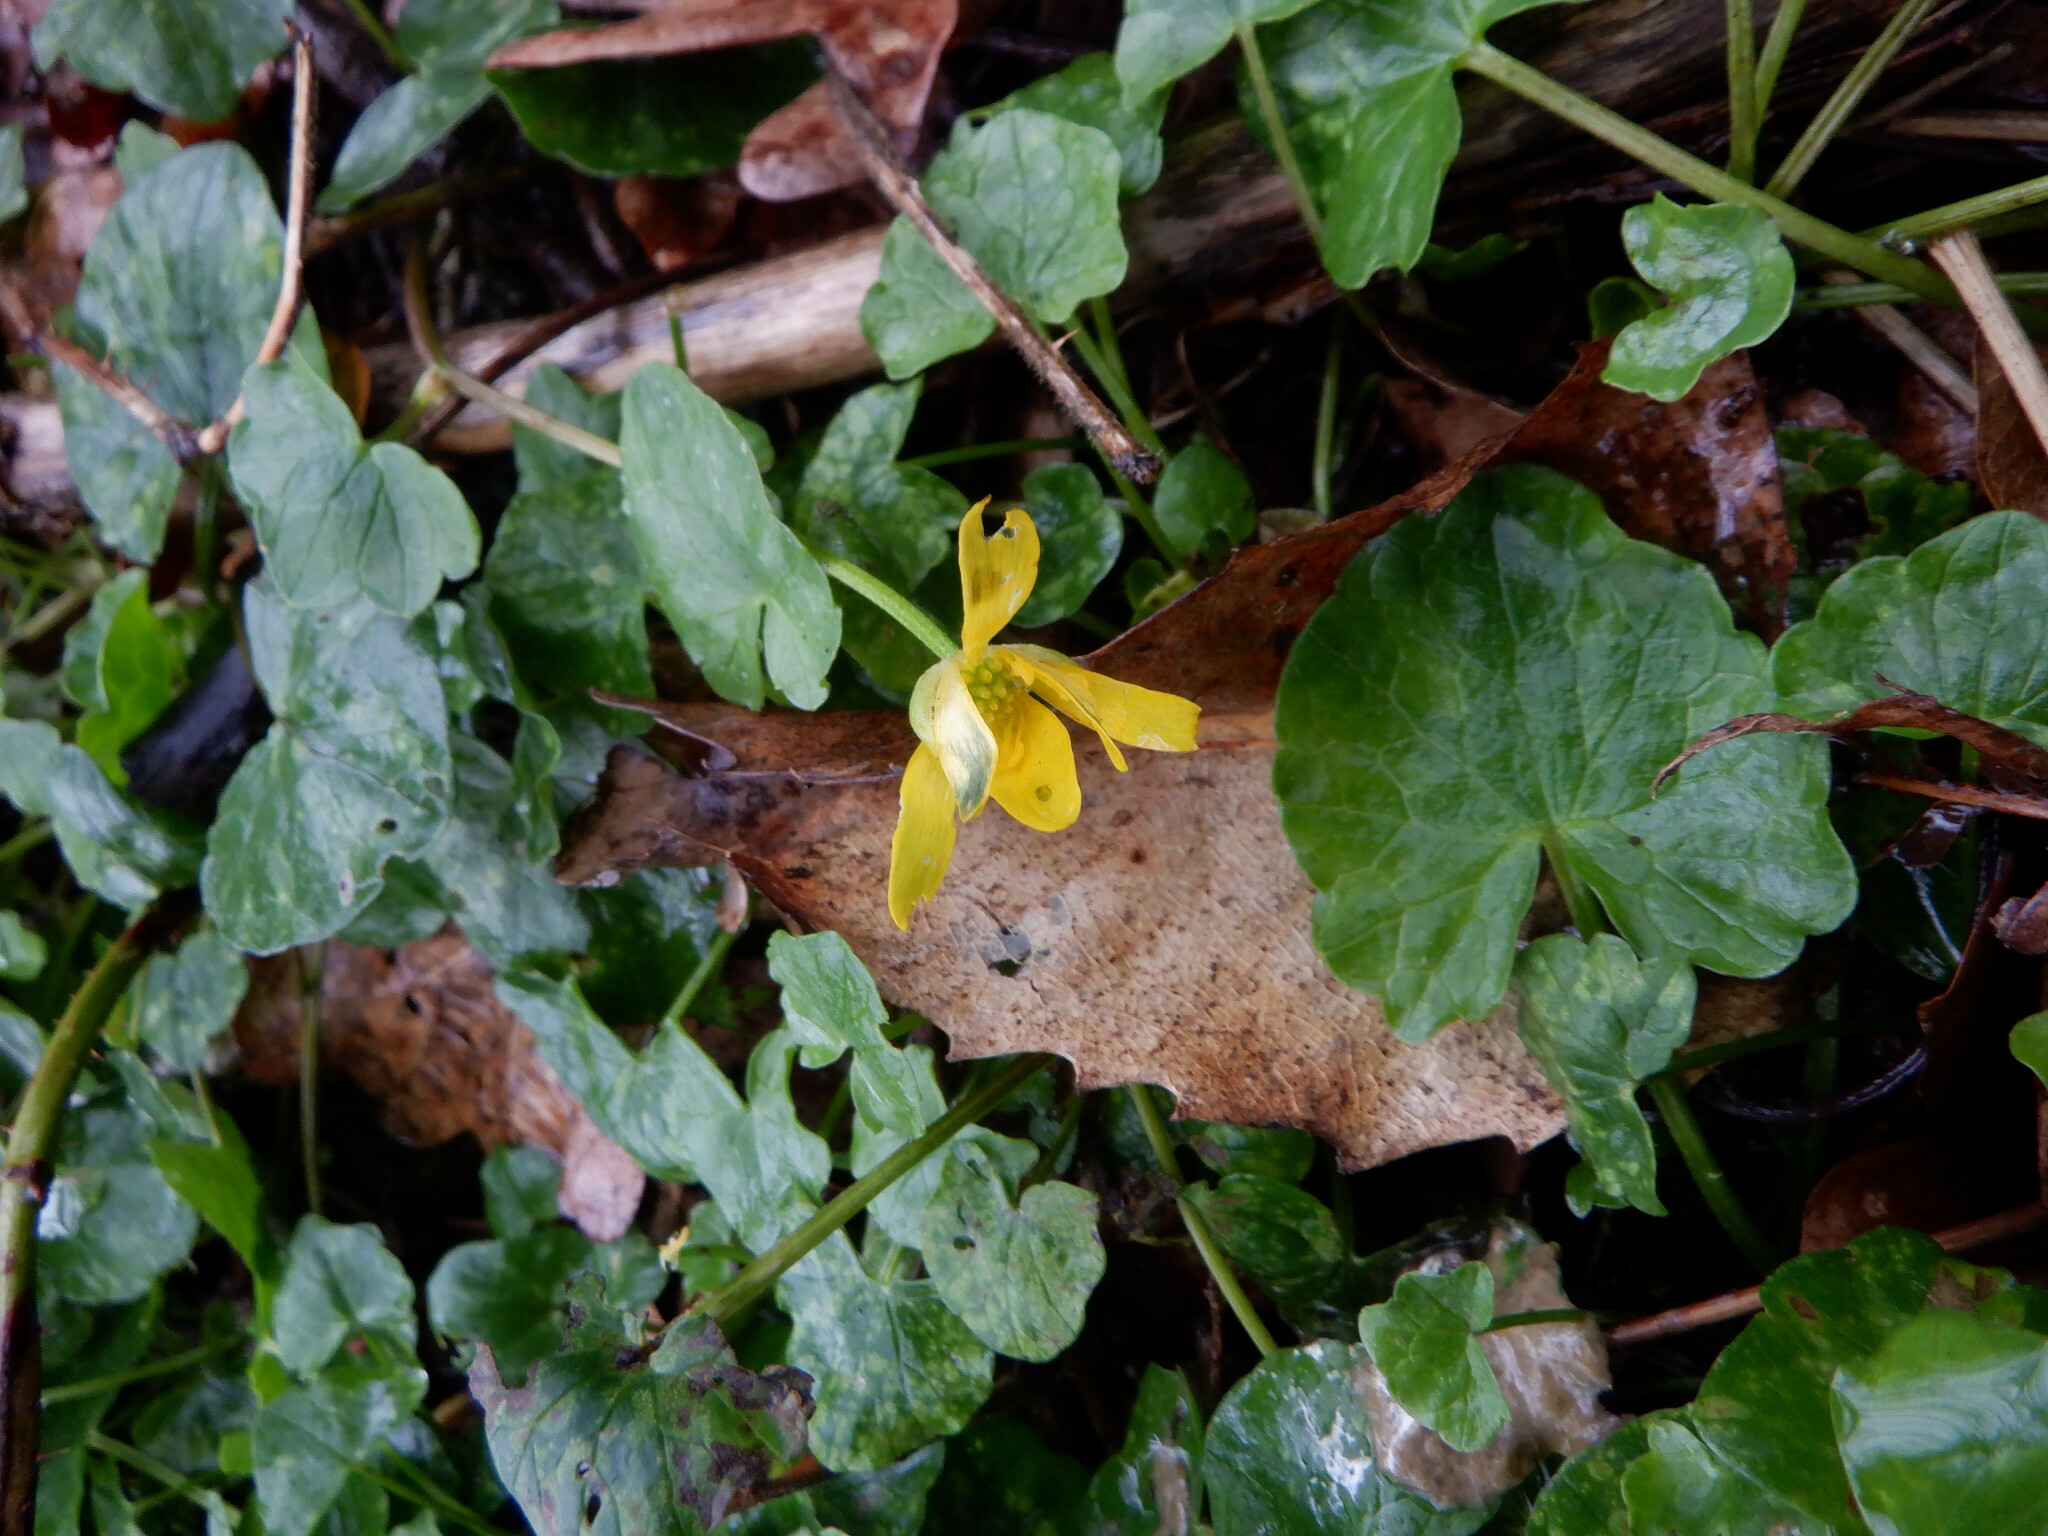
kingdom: Plantae
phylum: Tracheophyta
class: Magnoliopsida
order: Ranunculales
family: Ranunculaceae
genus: Ficaria
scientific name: Ficaria verna
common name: Lesser celandine
